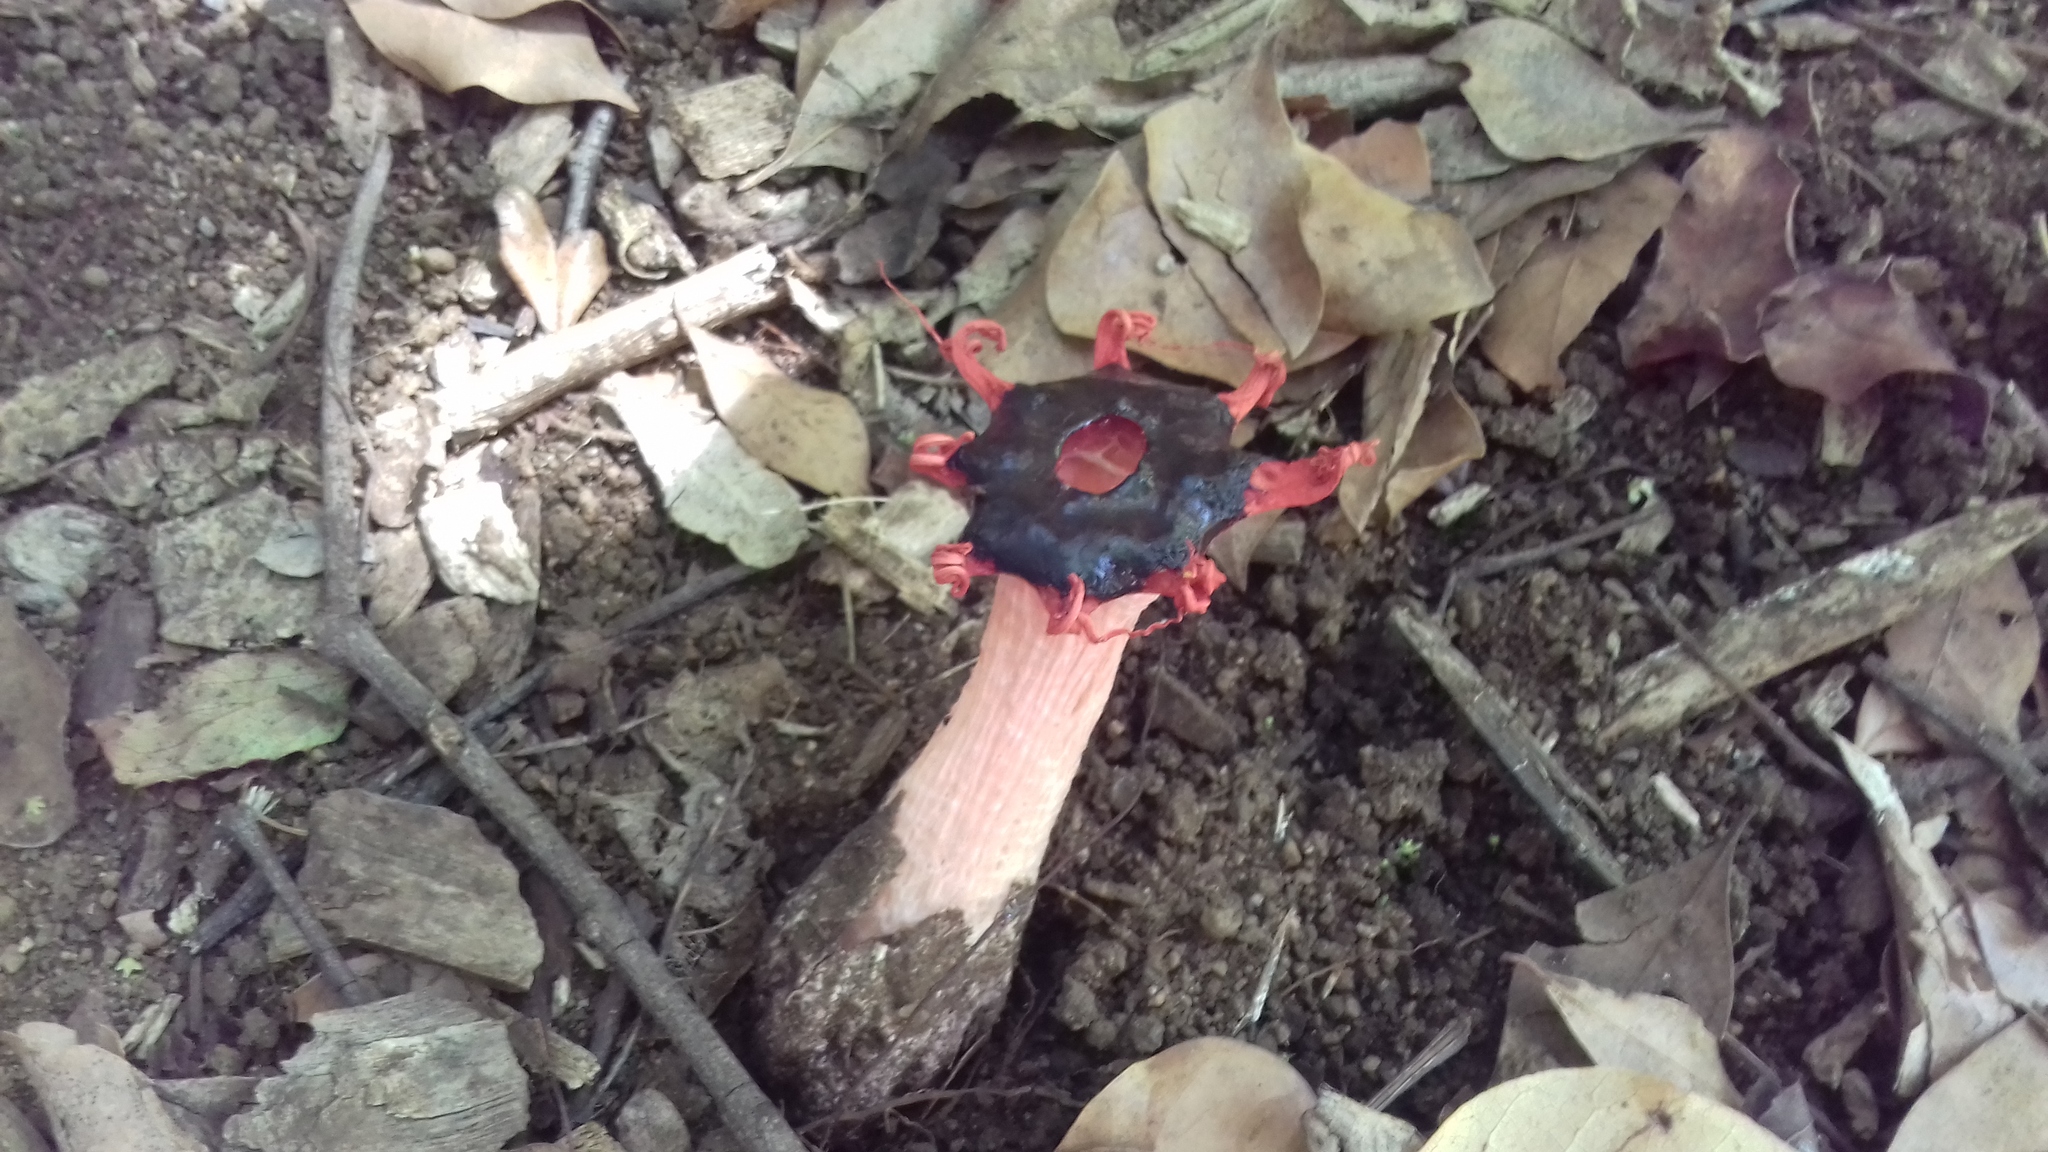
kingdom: Fungi
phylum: Basidiomycota
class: Agaricomycetes
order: Phallales
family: Phallaceae
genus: Aseroe
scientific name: Aseroe rubra
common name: Starfish fungus
